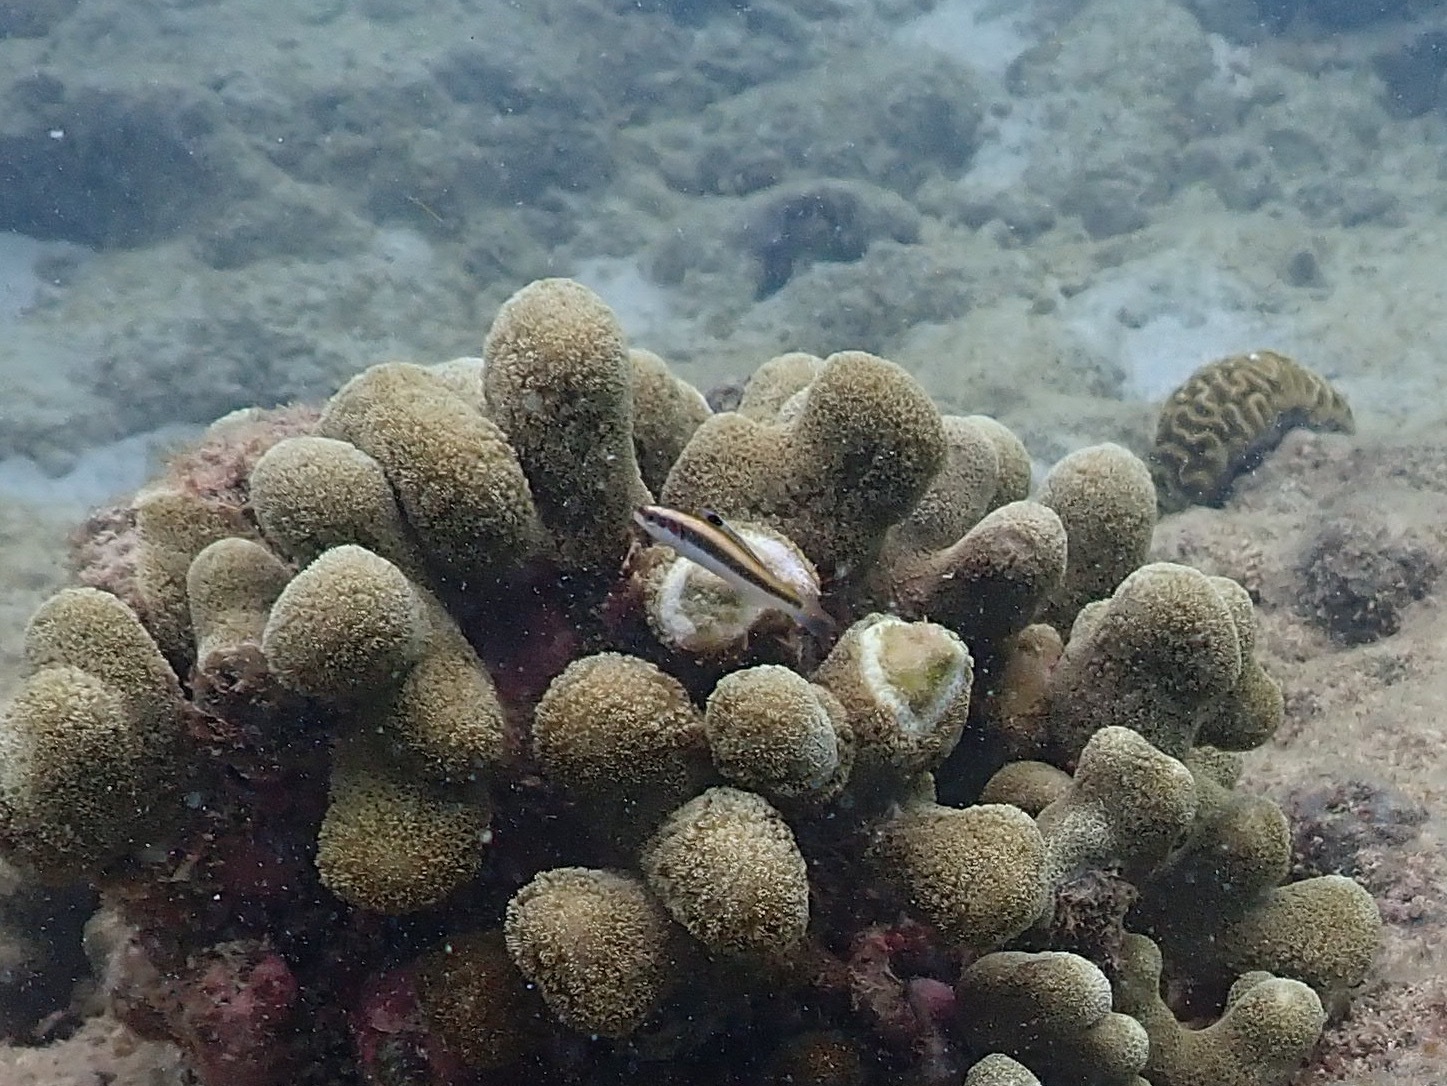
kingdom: Animalia
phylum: Chordata
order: Perciformes
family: Labridae
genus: Thalassoma
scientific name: Thalassoma bifasciatum
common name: Bluehead wrasse
